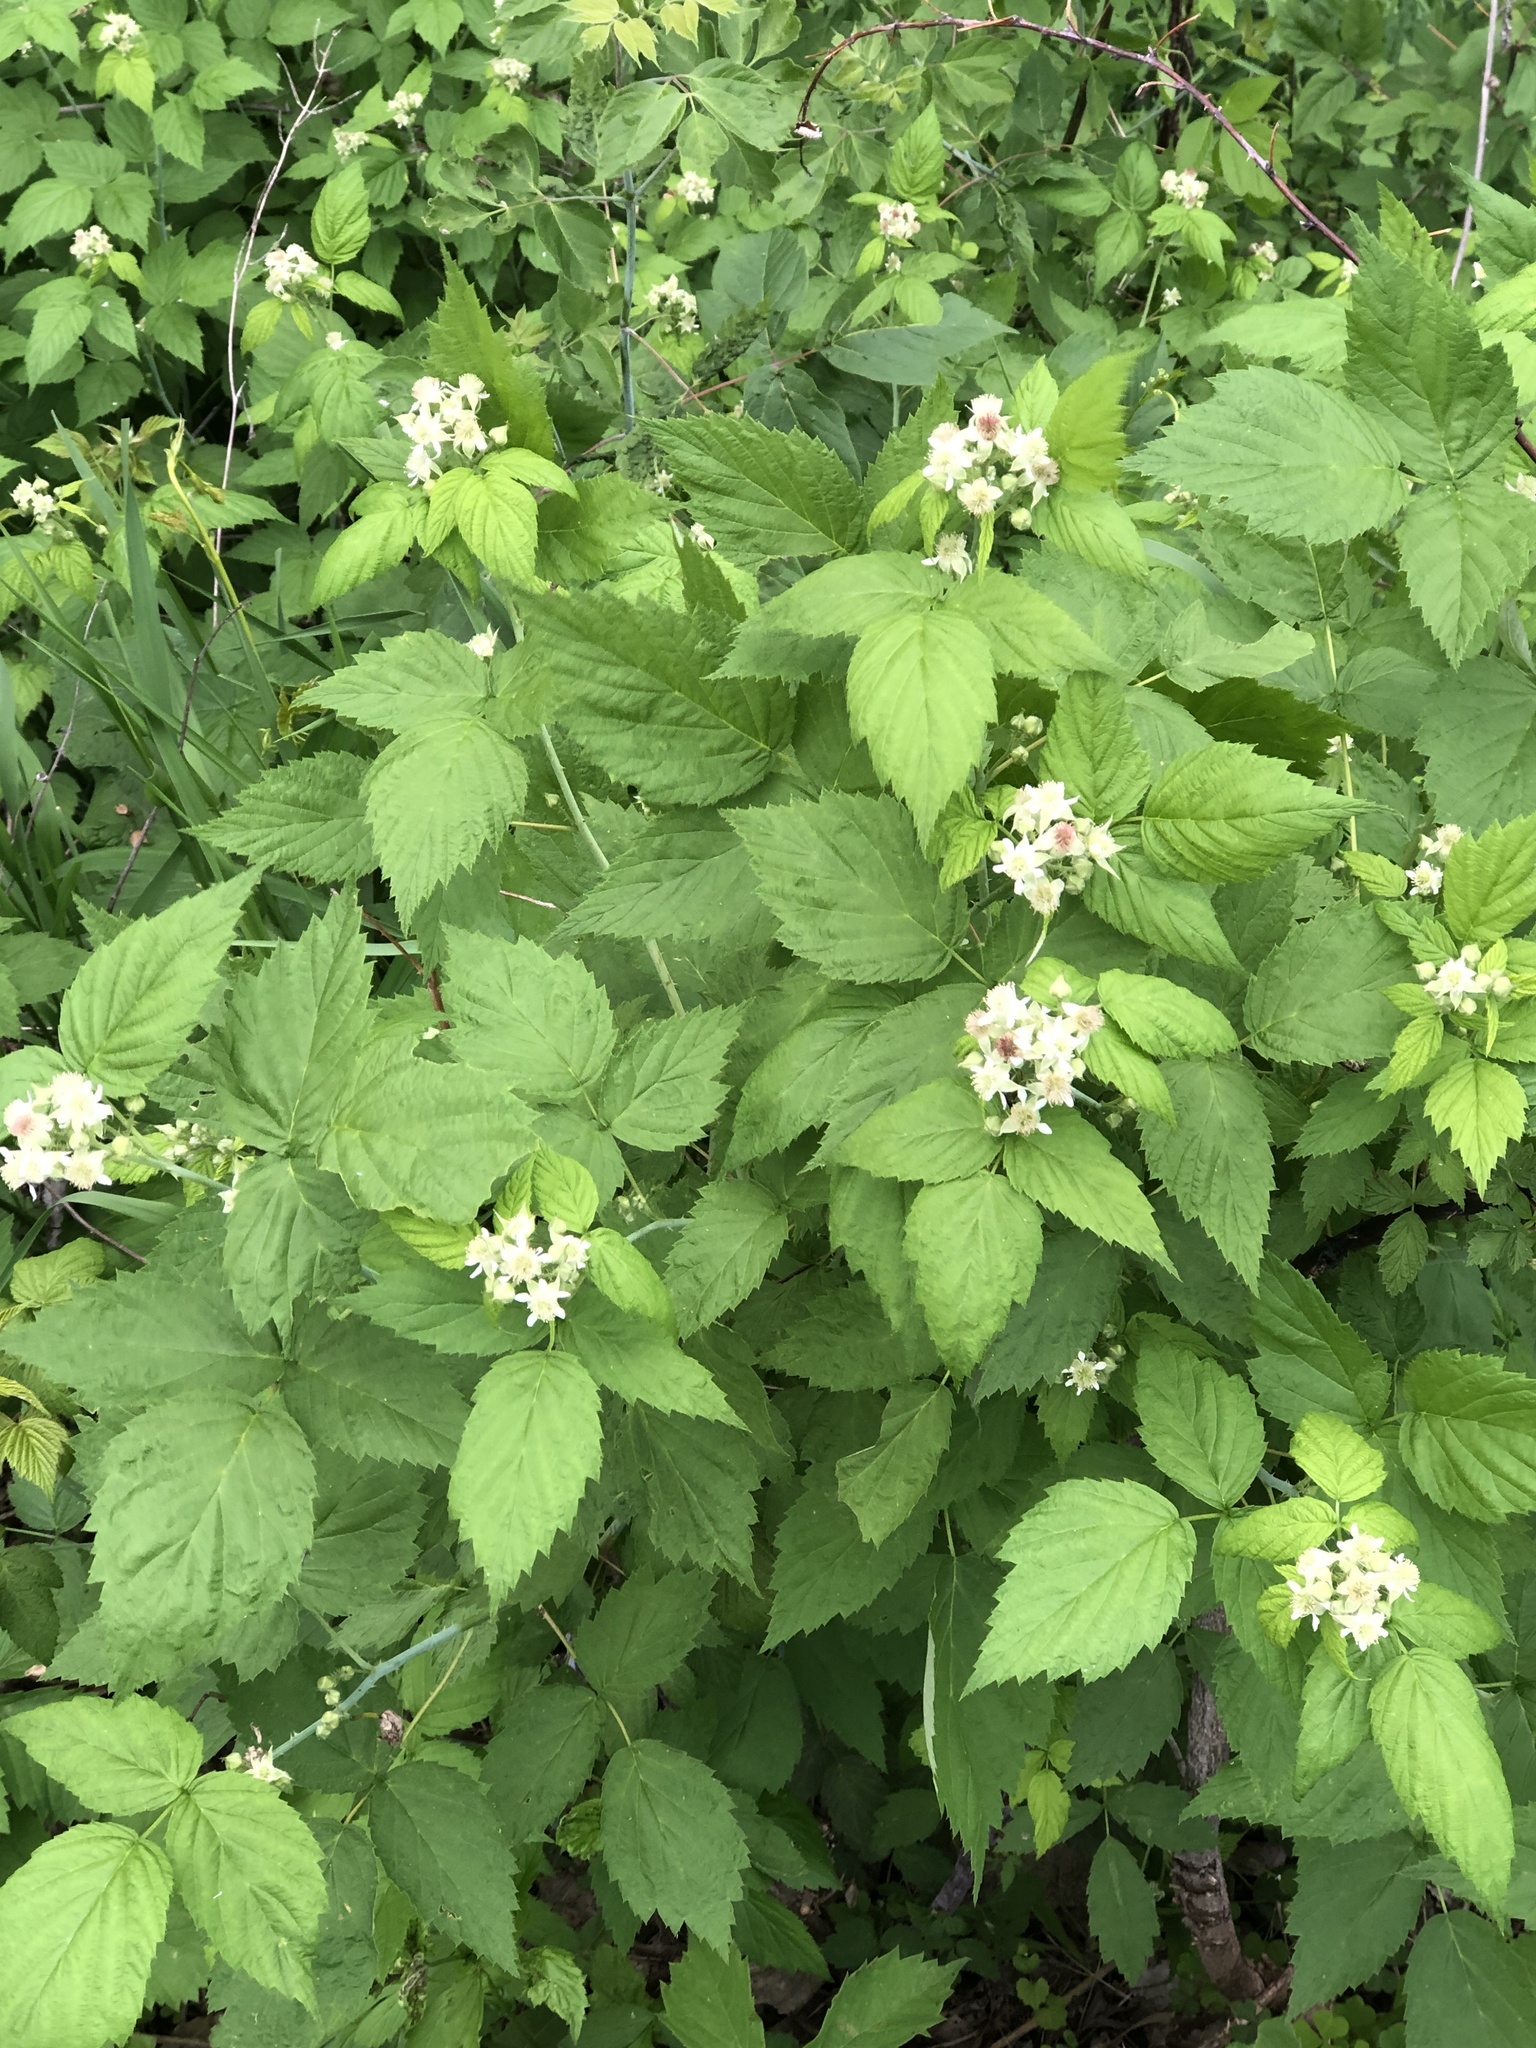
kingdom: Plantae
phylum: Tracheophyta
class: Magnoliopsida
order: Rosales
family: Rosaceae
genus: Rubus
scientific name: Rubus occidentalis
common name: Black raspberry
